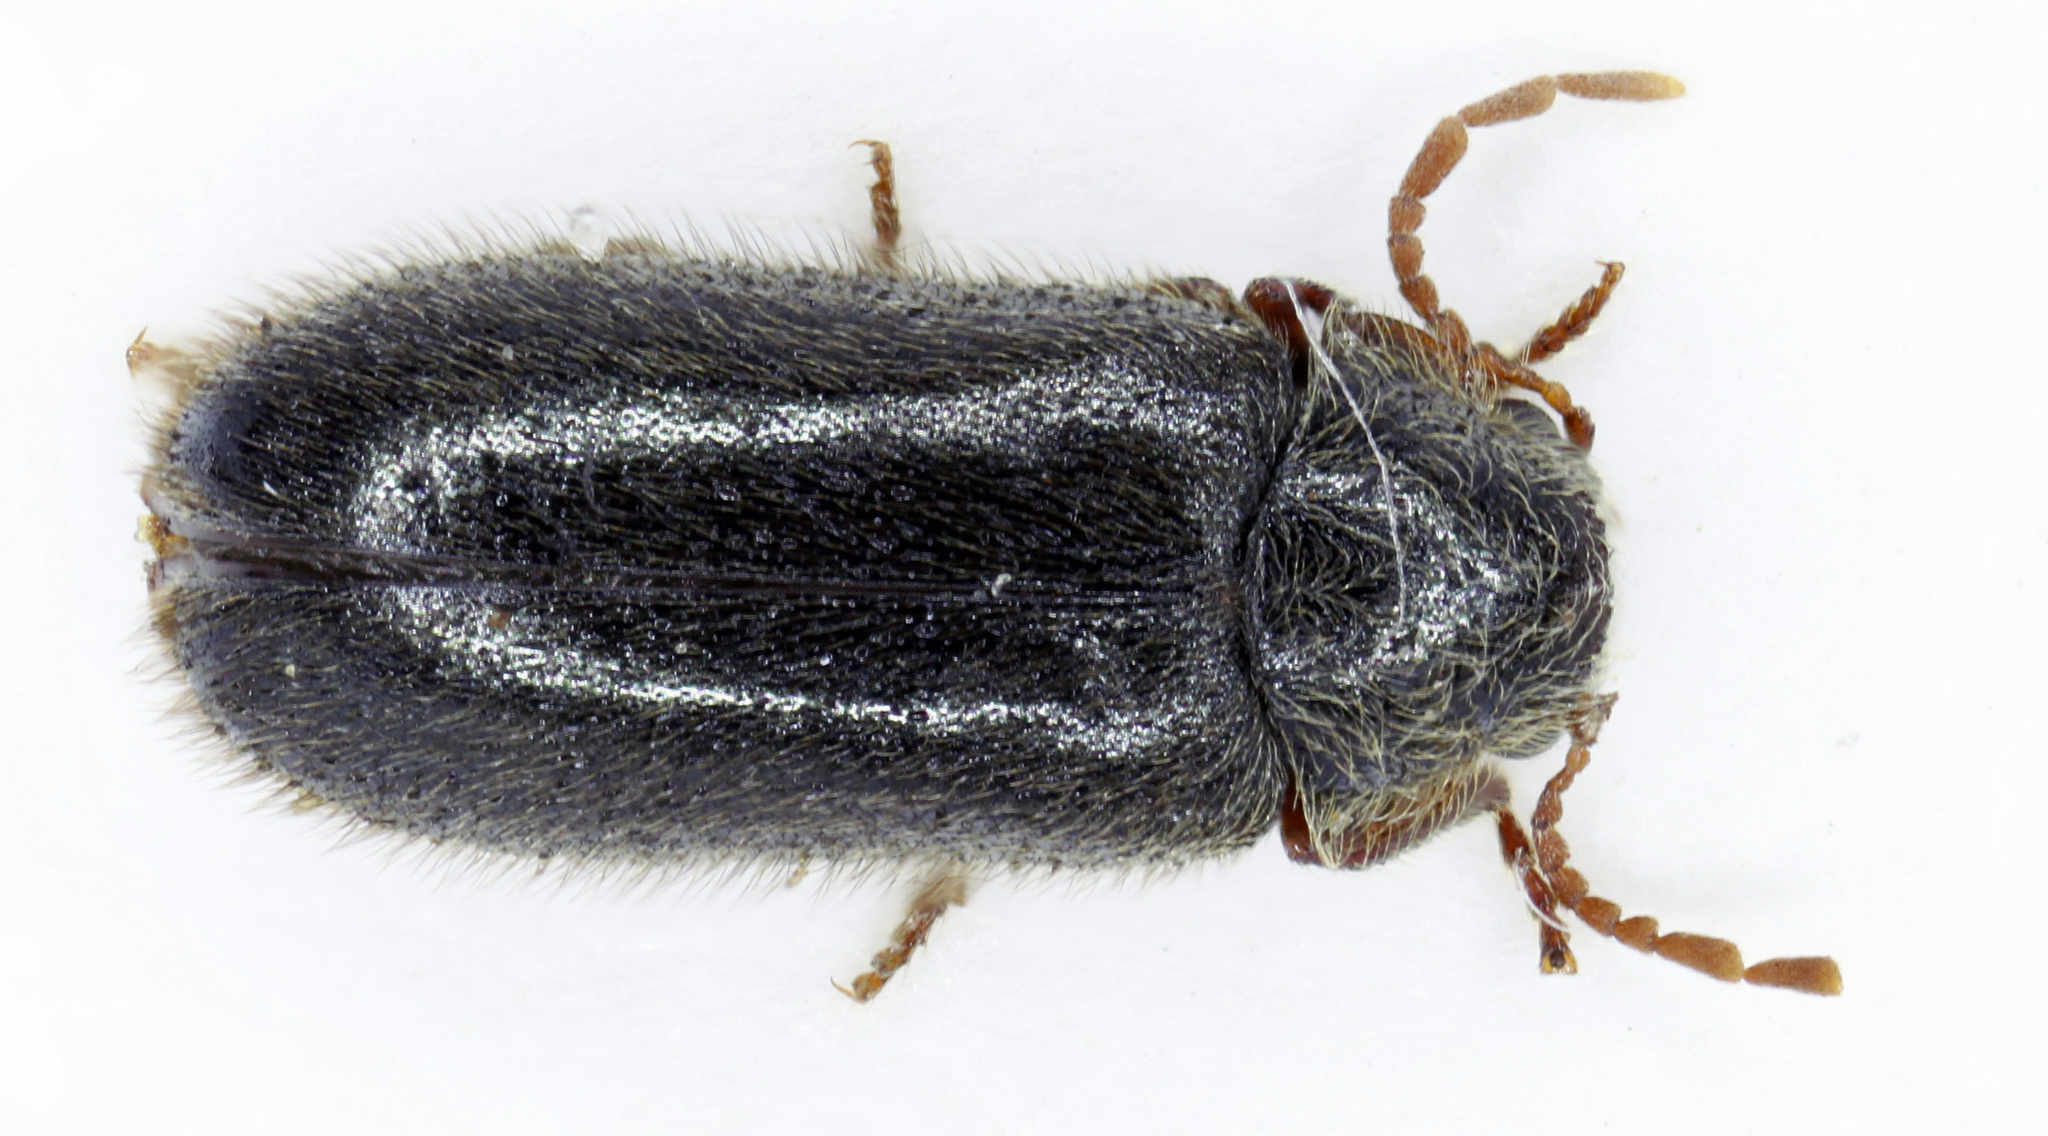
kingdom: Animalia
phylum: Arthropoda
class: Insecta
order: Coleoptera
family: Ptinidae
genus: Hyperisus
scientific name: Hyperisus plumbeus
